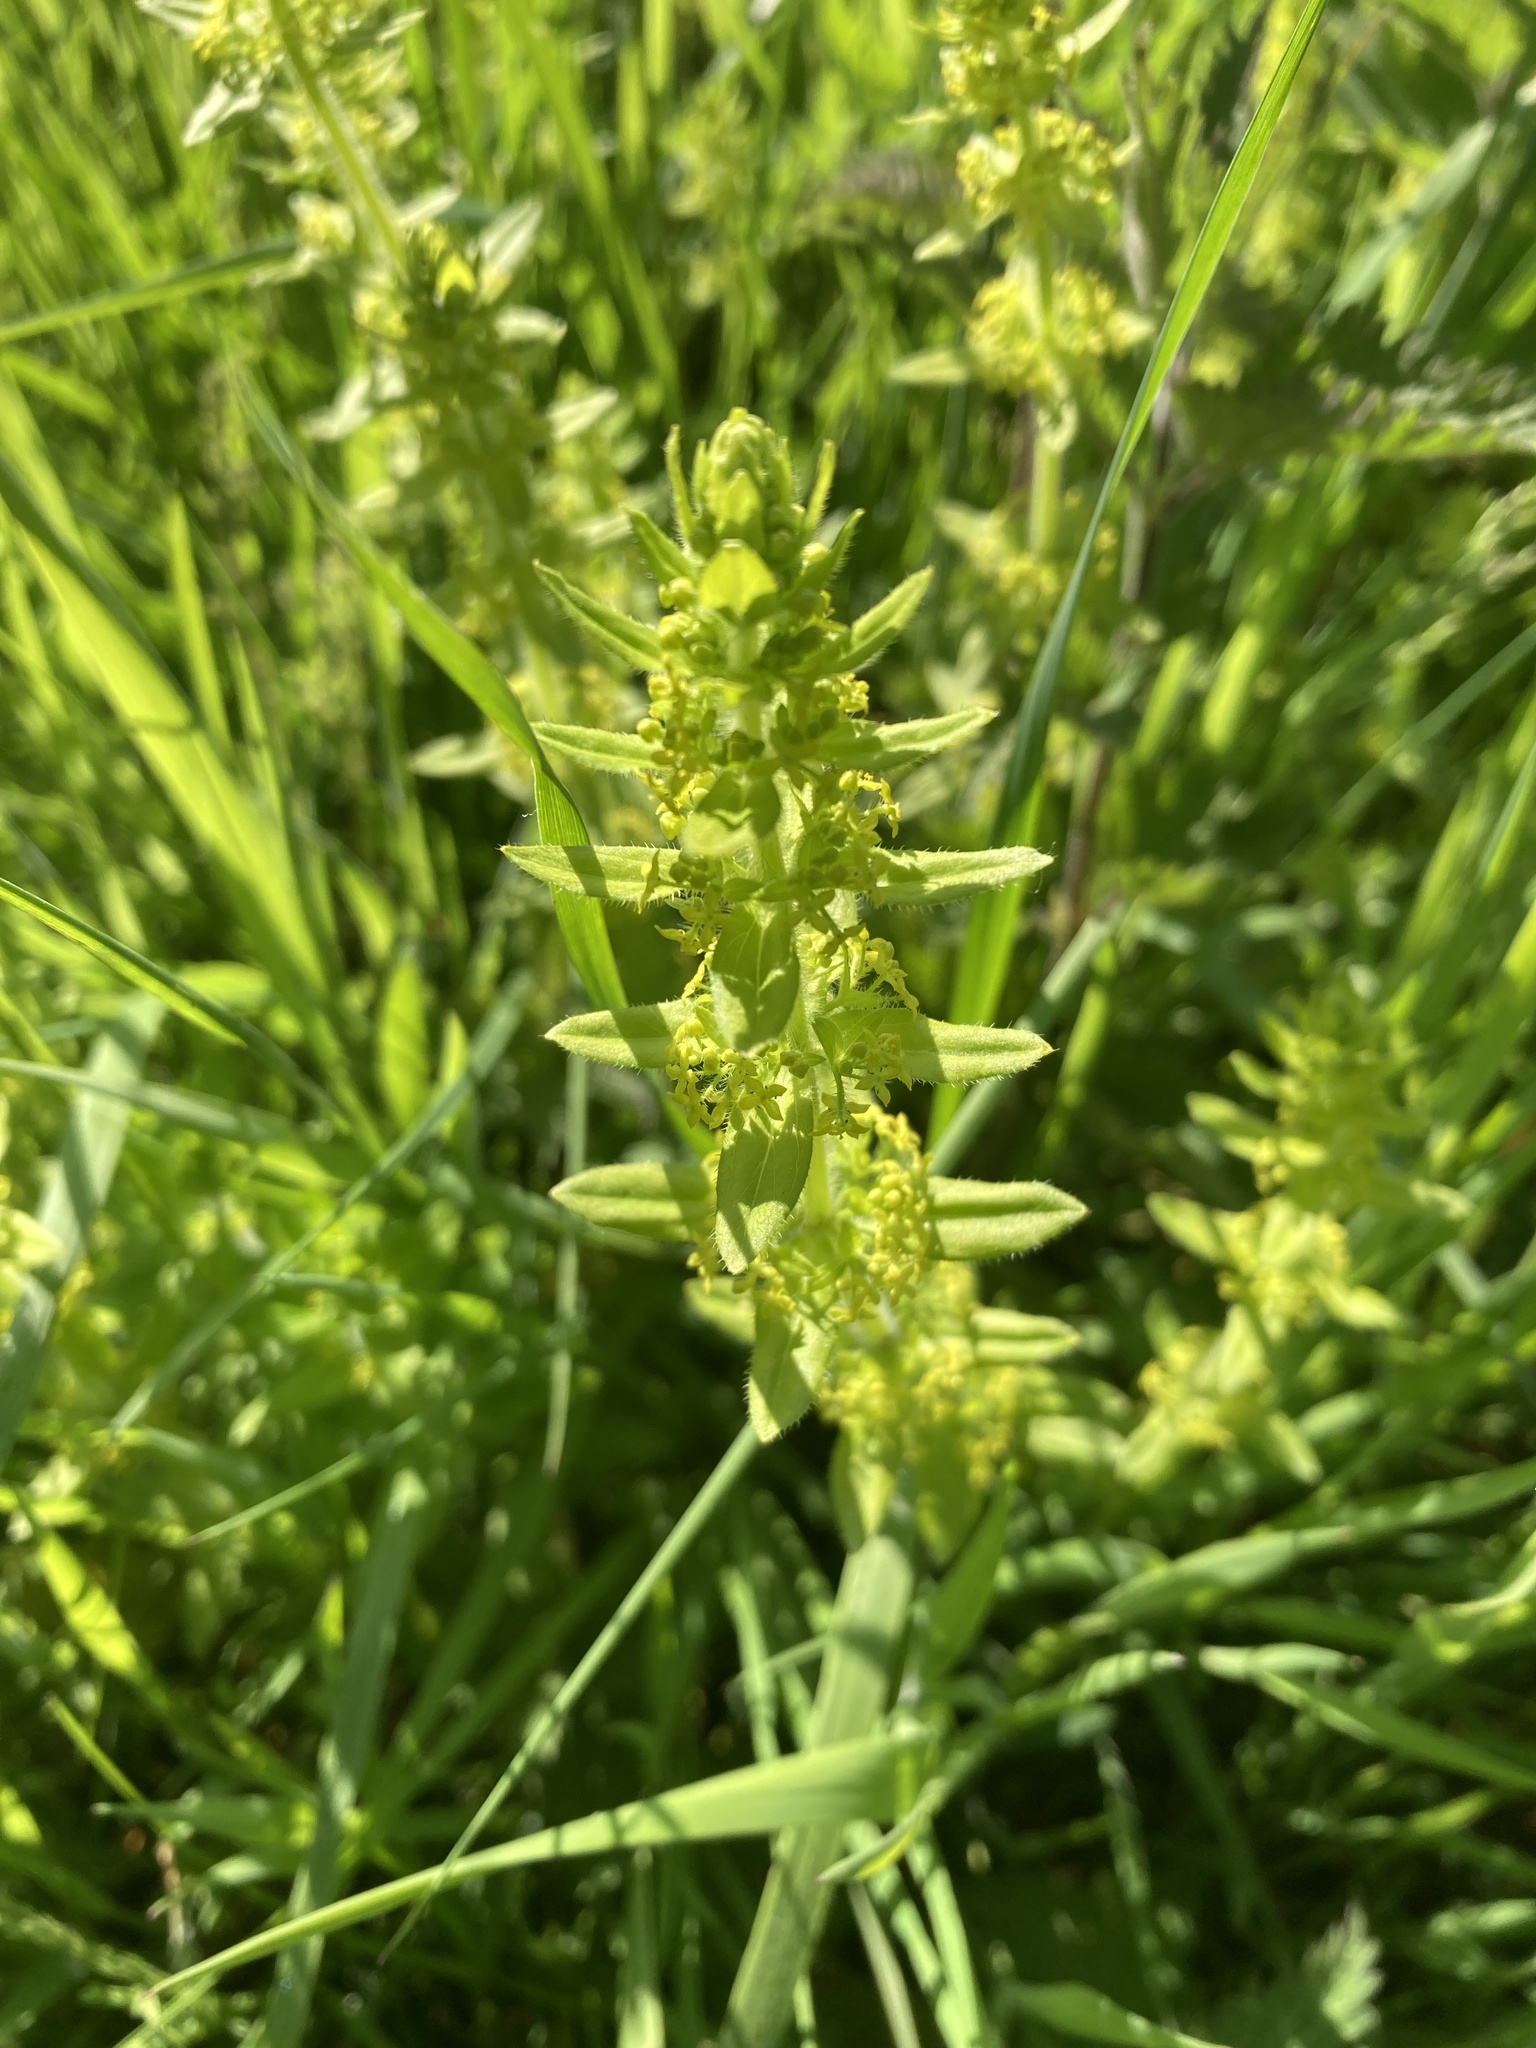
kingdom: Plantae
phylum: Tracheophyta
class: Magnoliopsida
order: Gentianales
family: Rubiaceae
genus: Cruciata
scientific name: Cruciata laevipes
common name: Crosswort
